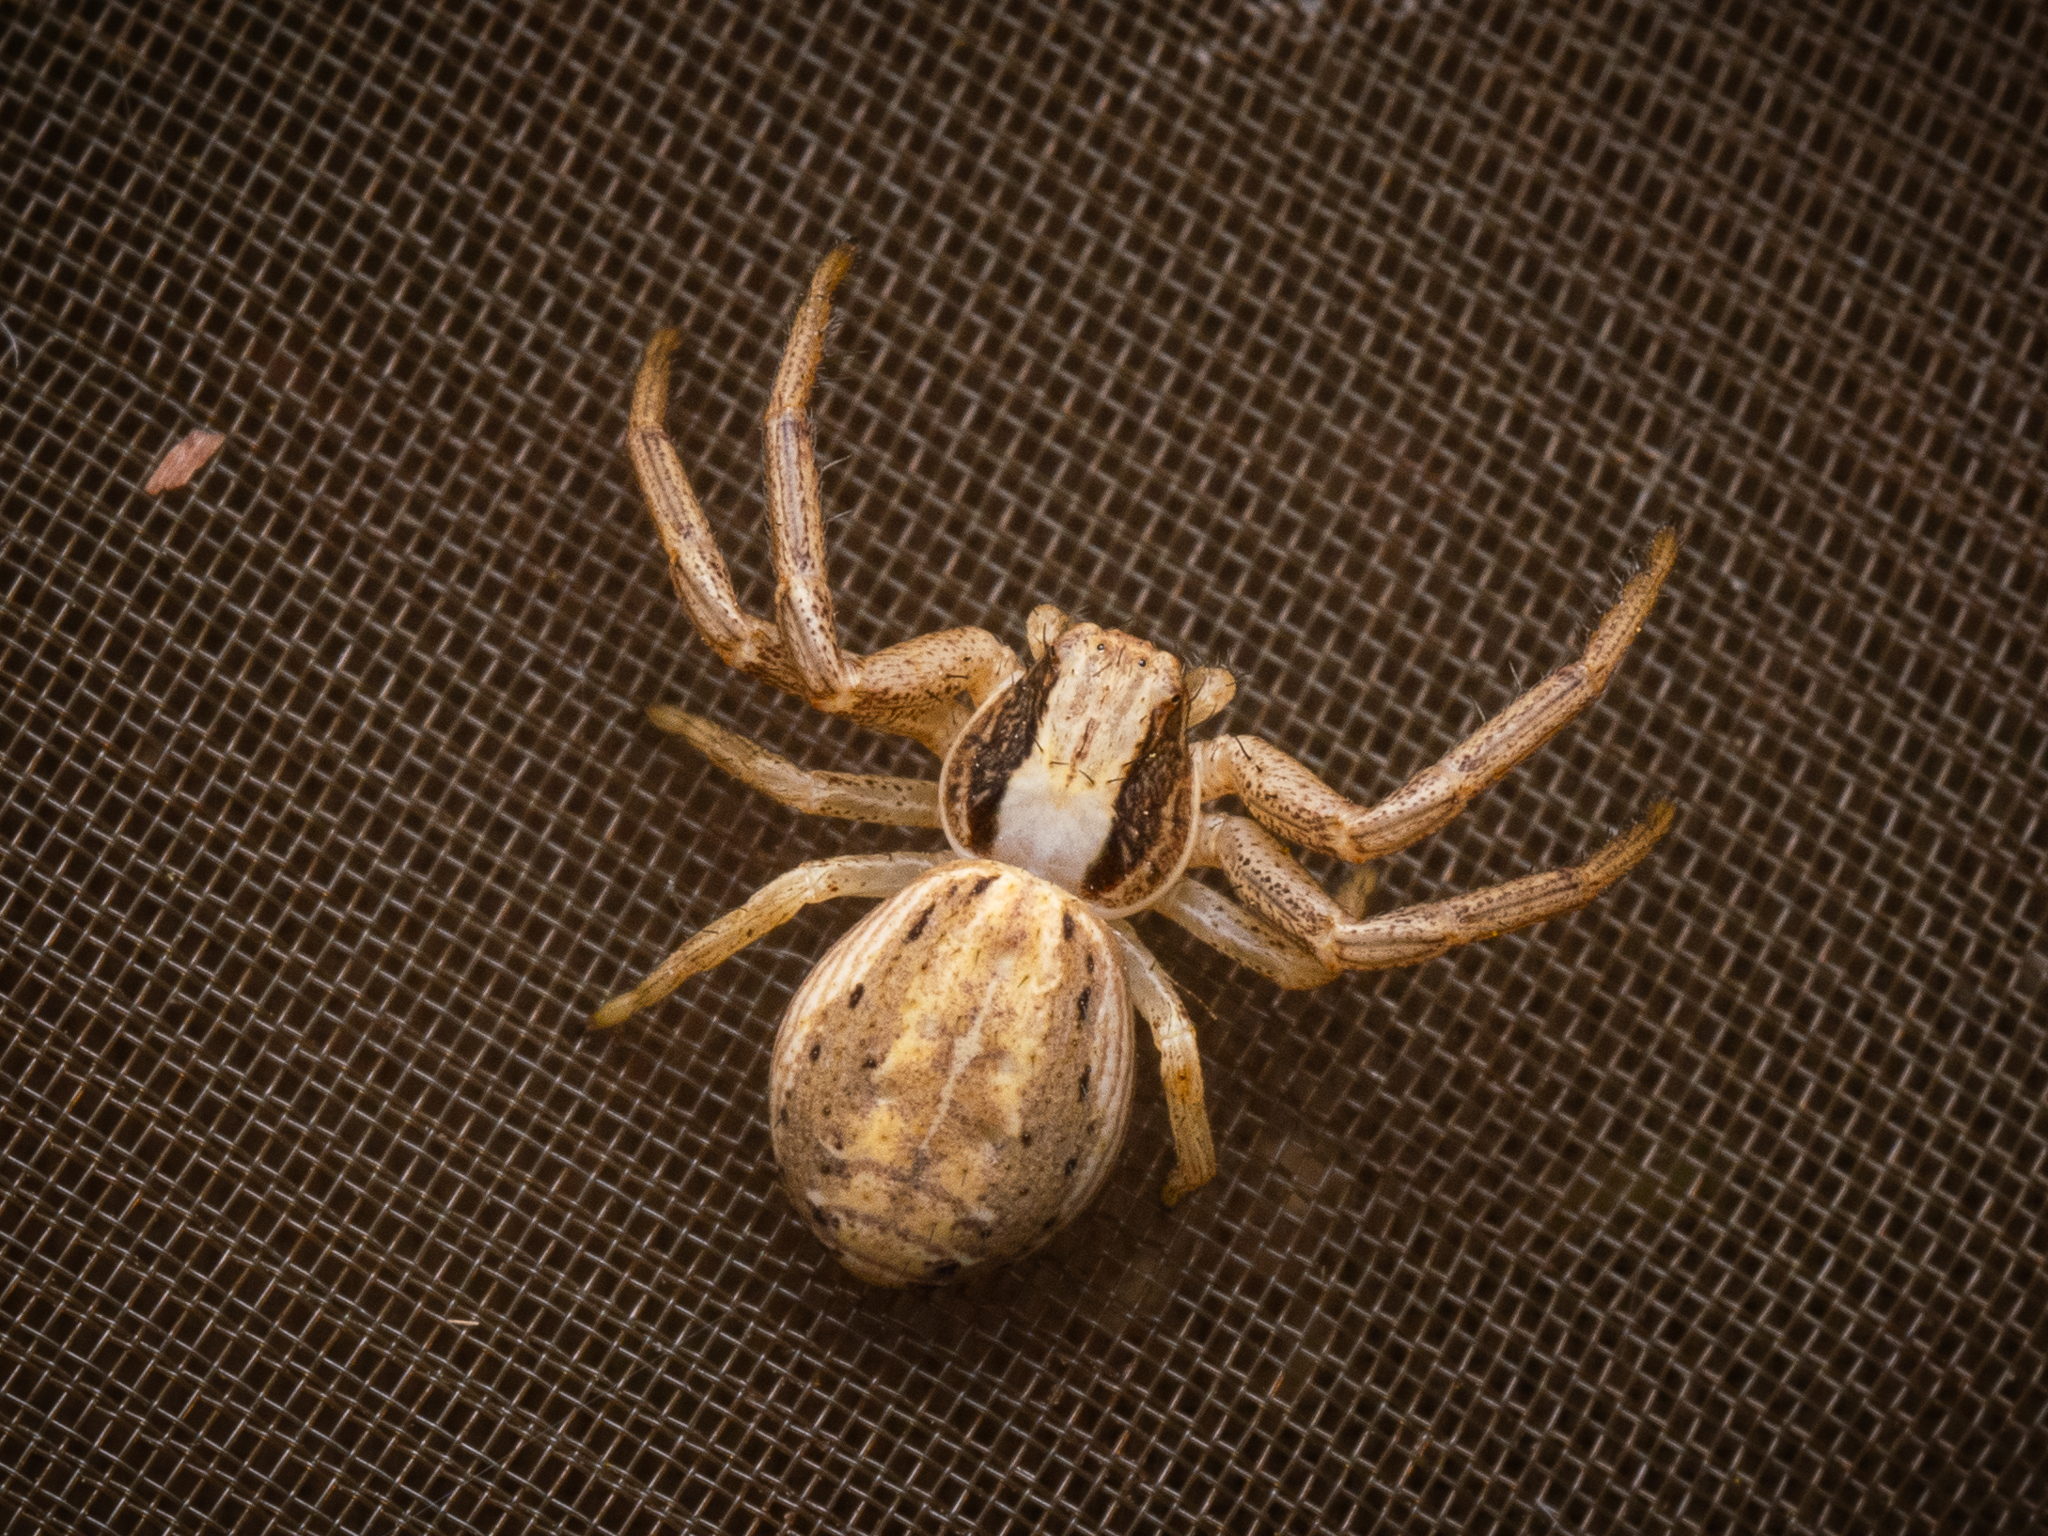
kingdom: Animalia
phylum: Arthropoda
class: Arachnida
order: Araneae
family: Thomisidae
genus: Spiracme
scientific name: Spiracme striatipes
